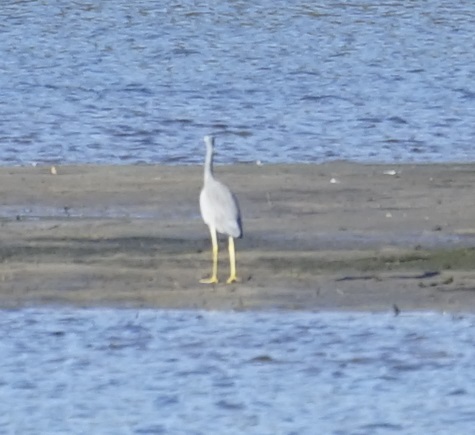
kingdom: Animalia
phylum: Chordata
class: Aves
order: Pelecaniformes
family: Ardeidae
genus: Egretta
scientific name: Egretta novaehollandiae
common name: White-faced heron
